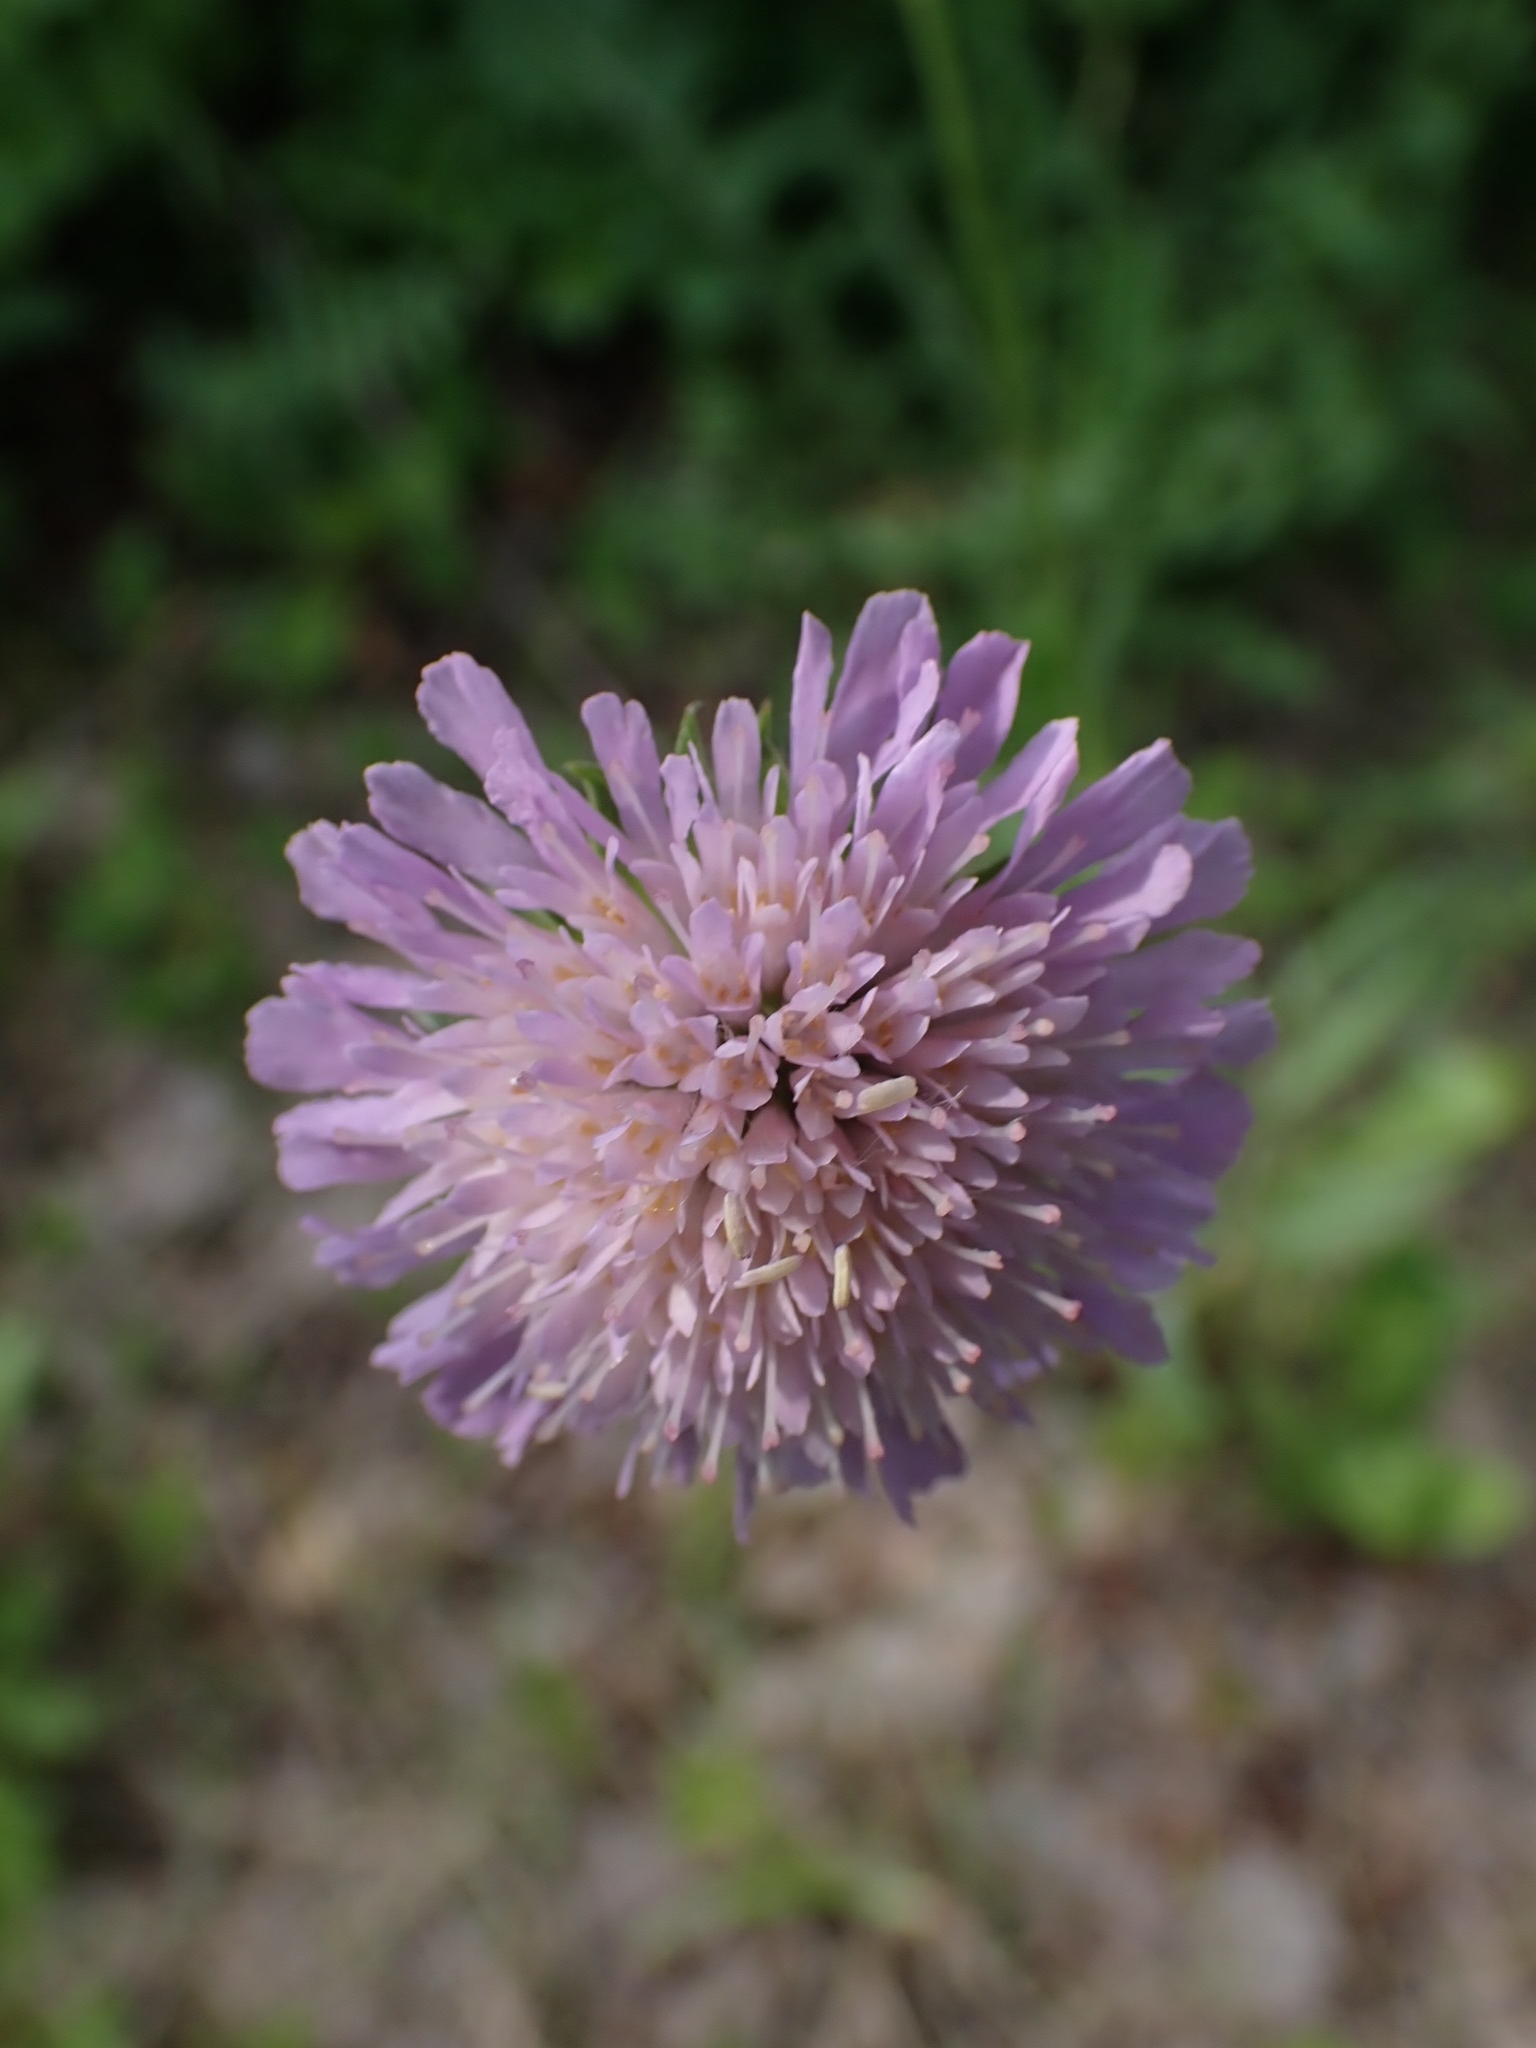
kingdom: Plantae
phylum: Tracheophyta
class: Magnoliopsida
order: Dipsacales
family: Caprifoliaceae
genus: Knautia
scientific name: Knautia arvensis
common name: Field scabiosa
